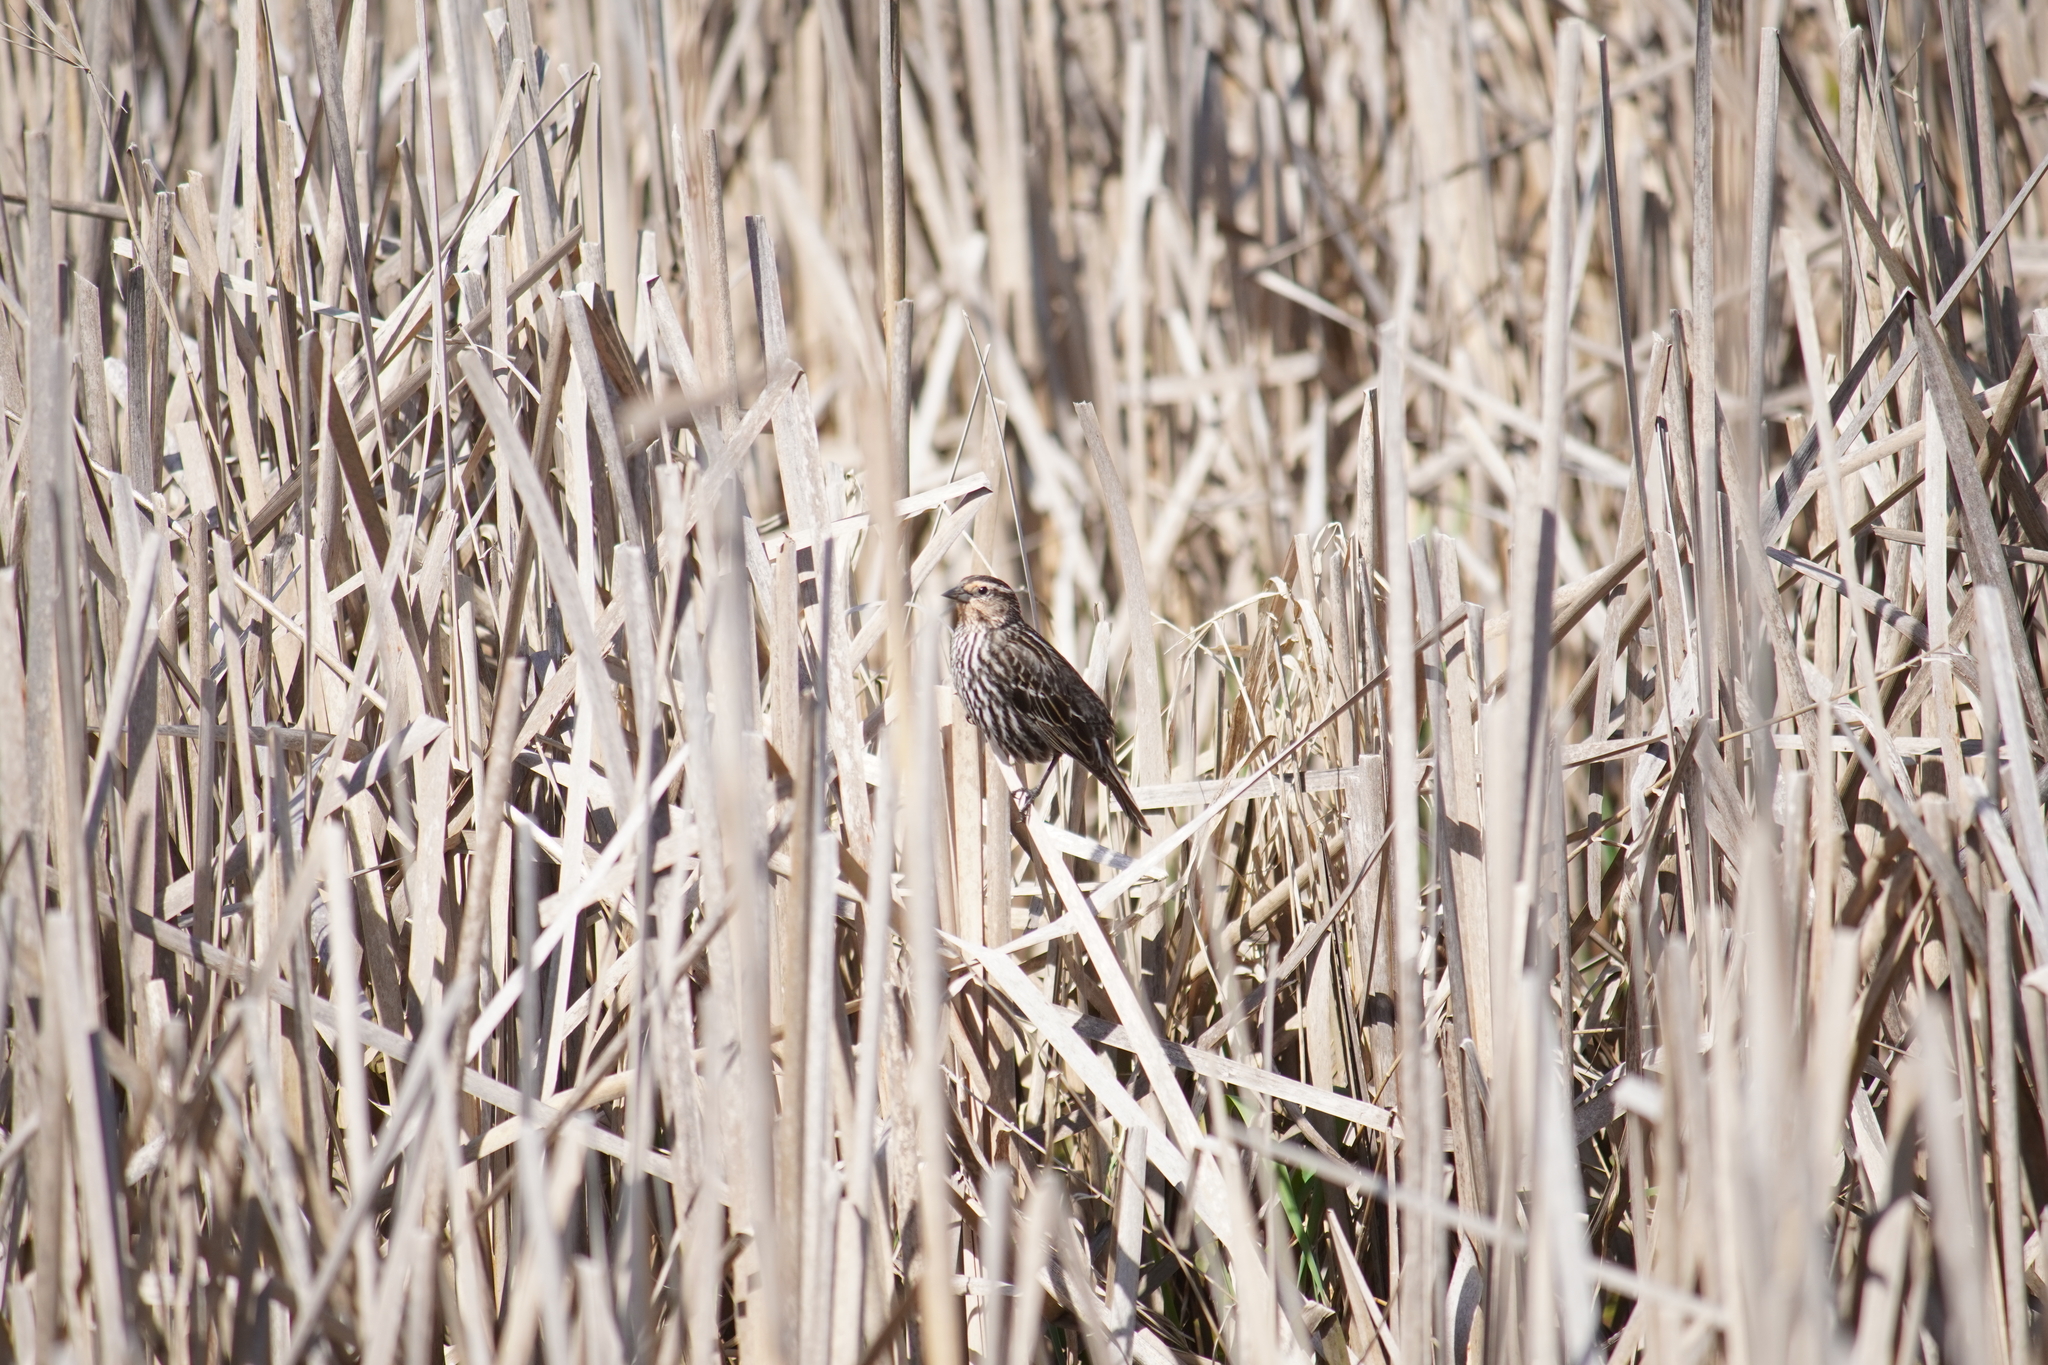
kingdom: Animalia
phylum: Chordata
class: Aves
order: Passeriformes
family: Icteridae
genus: Agelaius
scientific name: Agelaius phoeniceus
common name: Red-winged blackbird
